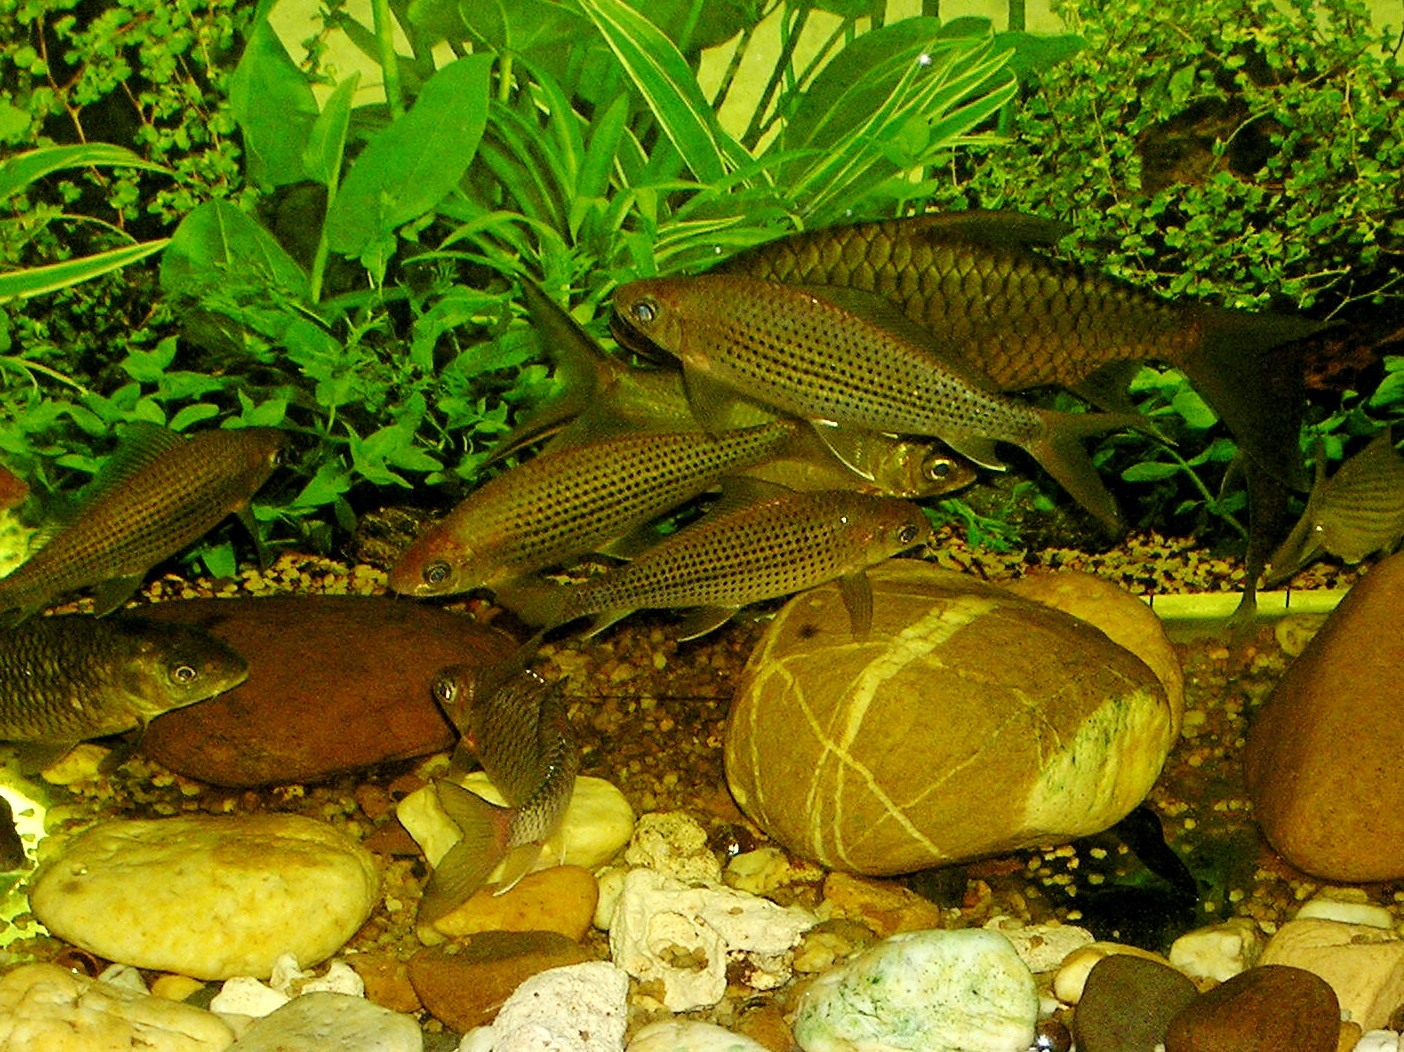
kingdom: Animalia
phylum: Chordata
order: Cypriniformes
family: Cyprinidae
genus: Labiobarbus
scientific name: Labiobarbus leptocheilus
